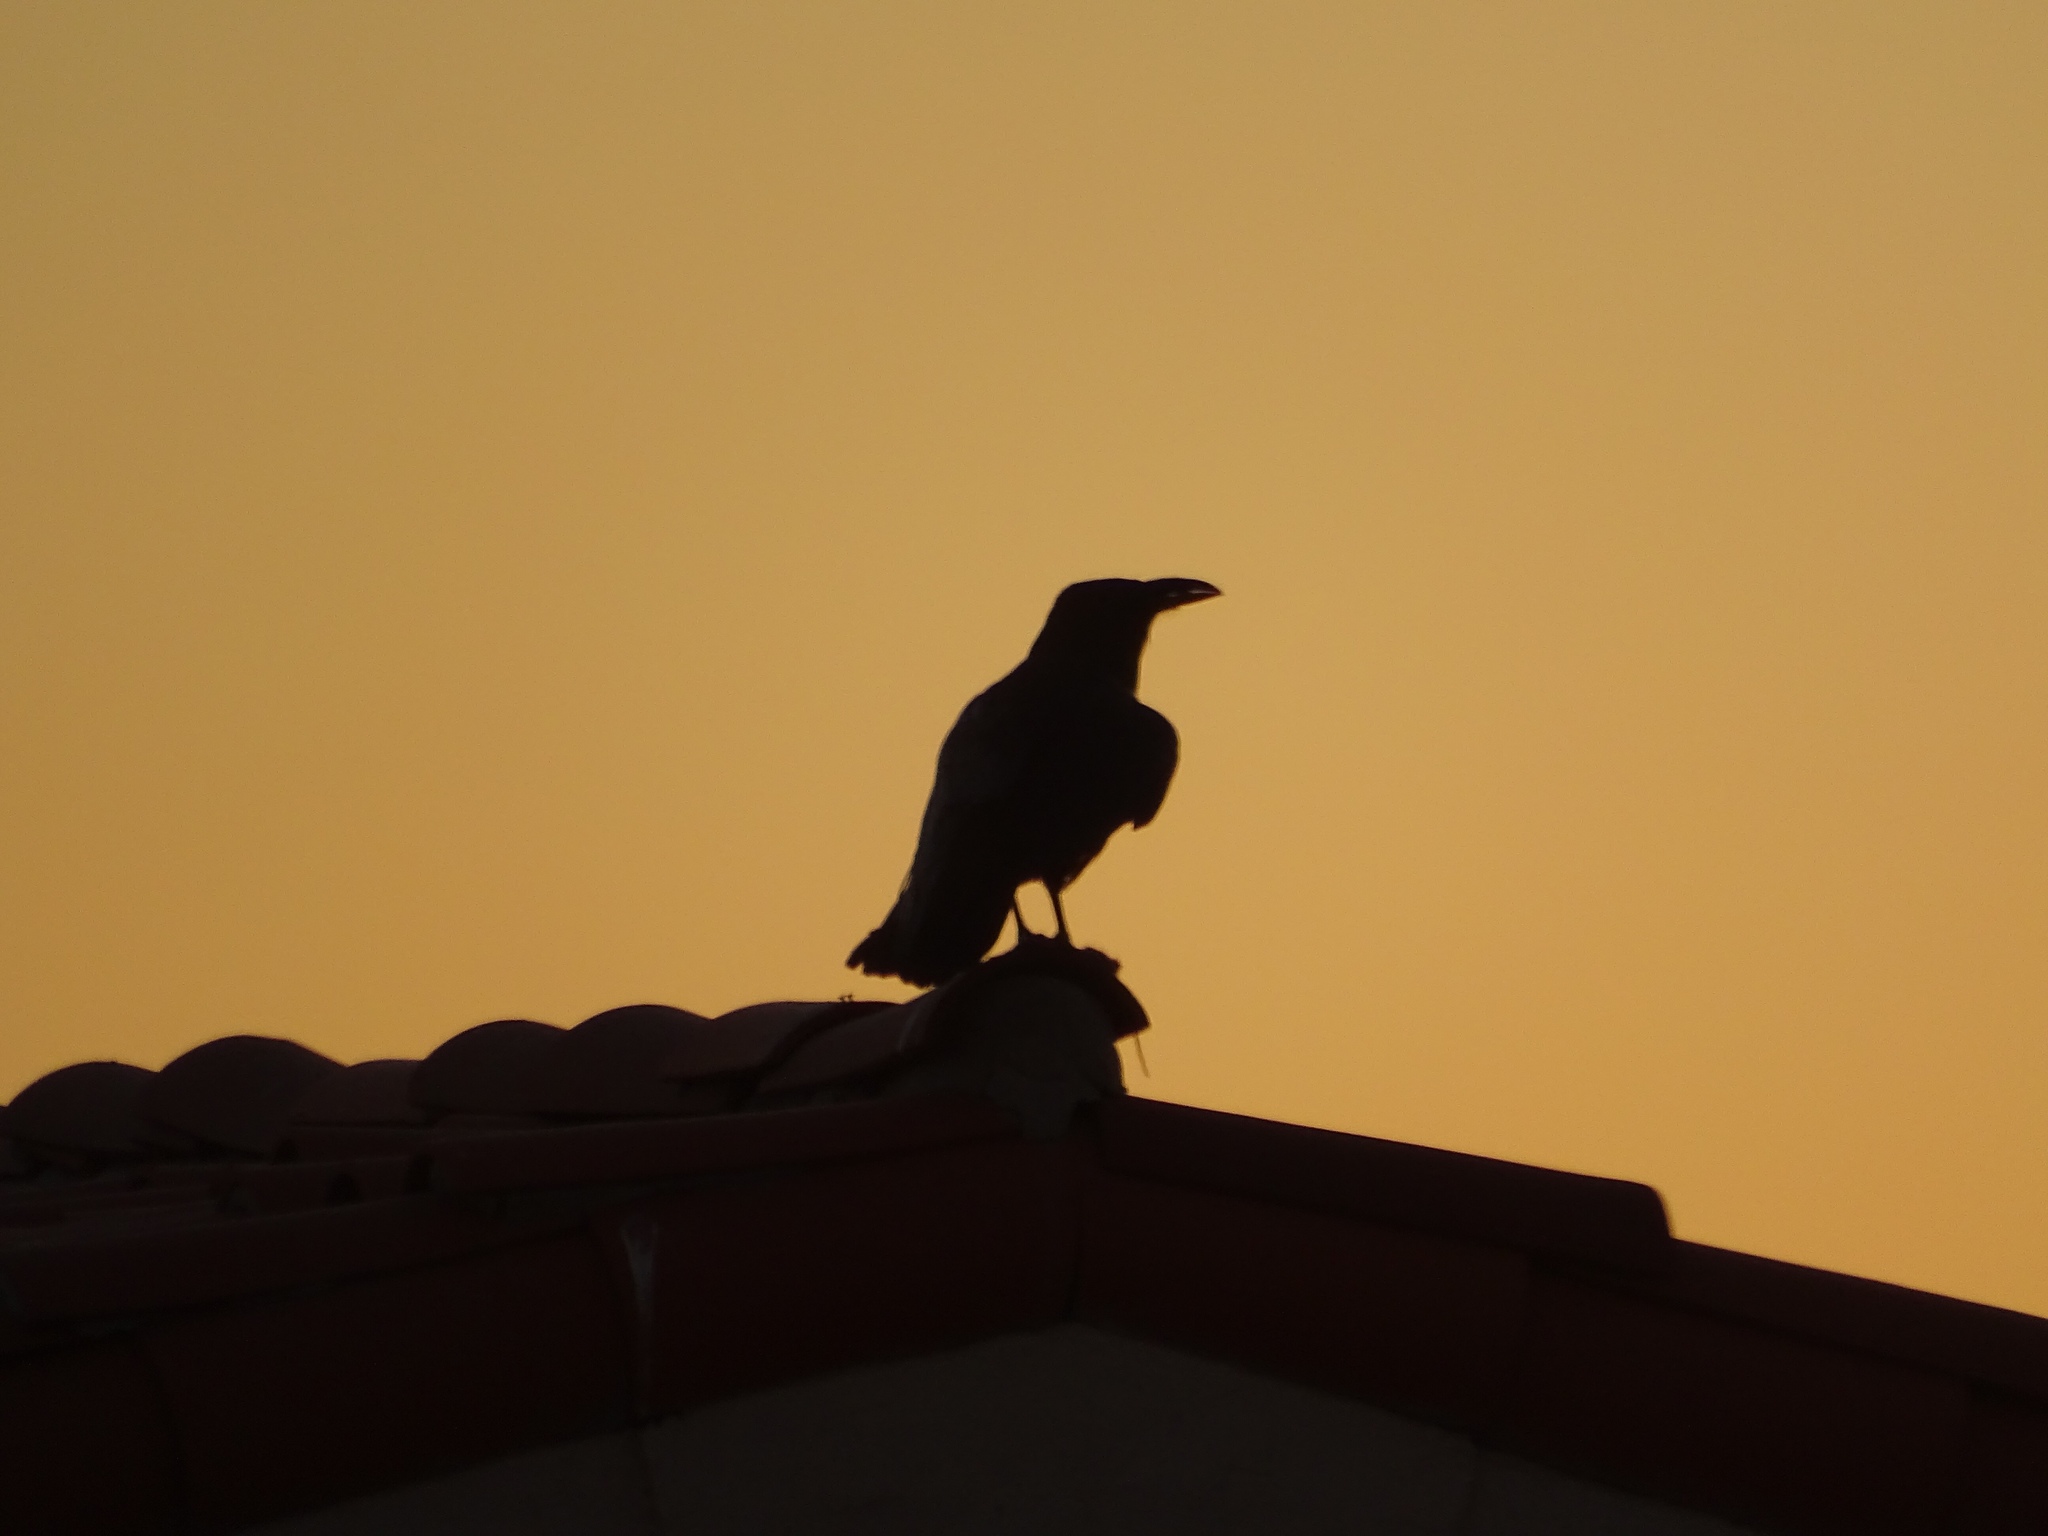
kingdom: Animalia
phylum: Chordata
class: Aves
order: Passeriformes
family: Corvidae
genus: Corvus
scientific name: Corvus corax
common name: Common raven
